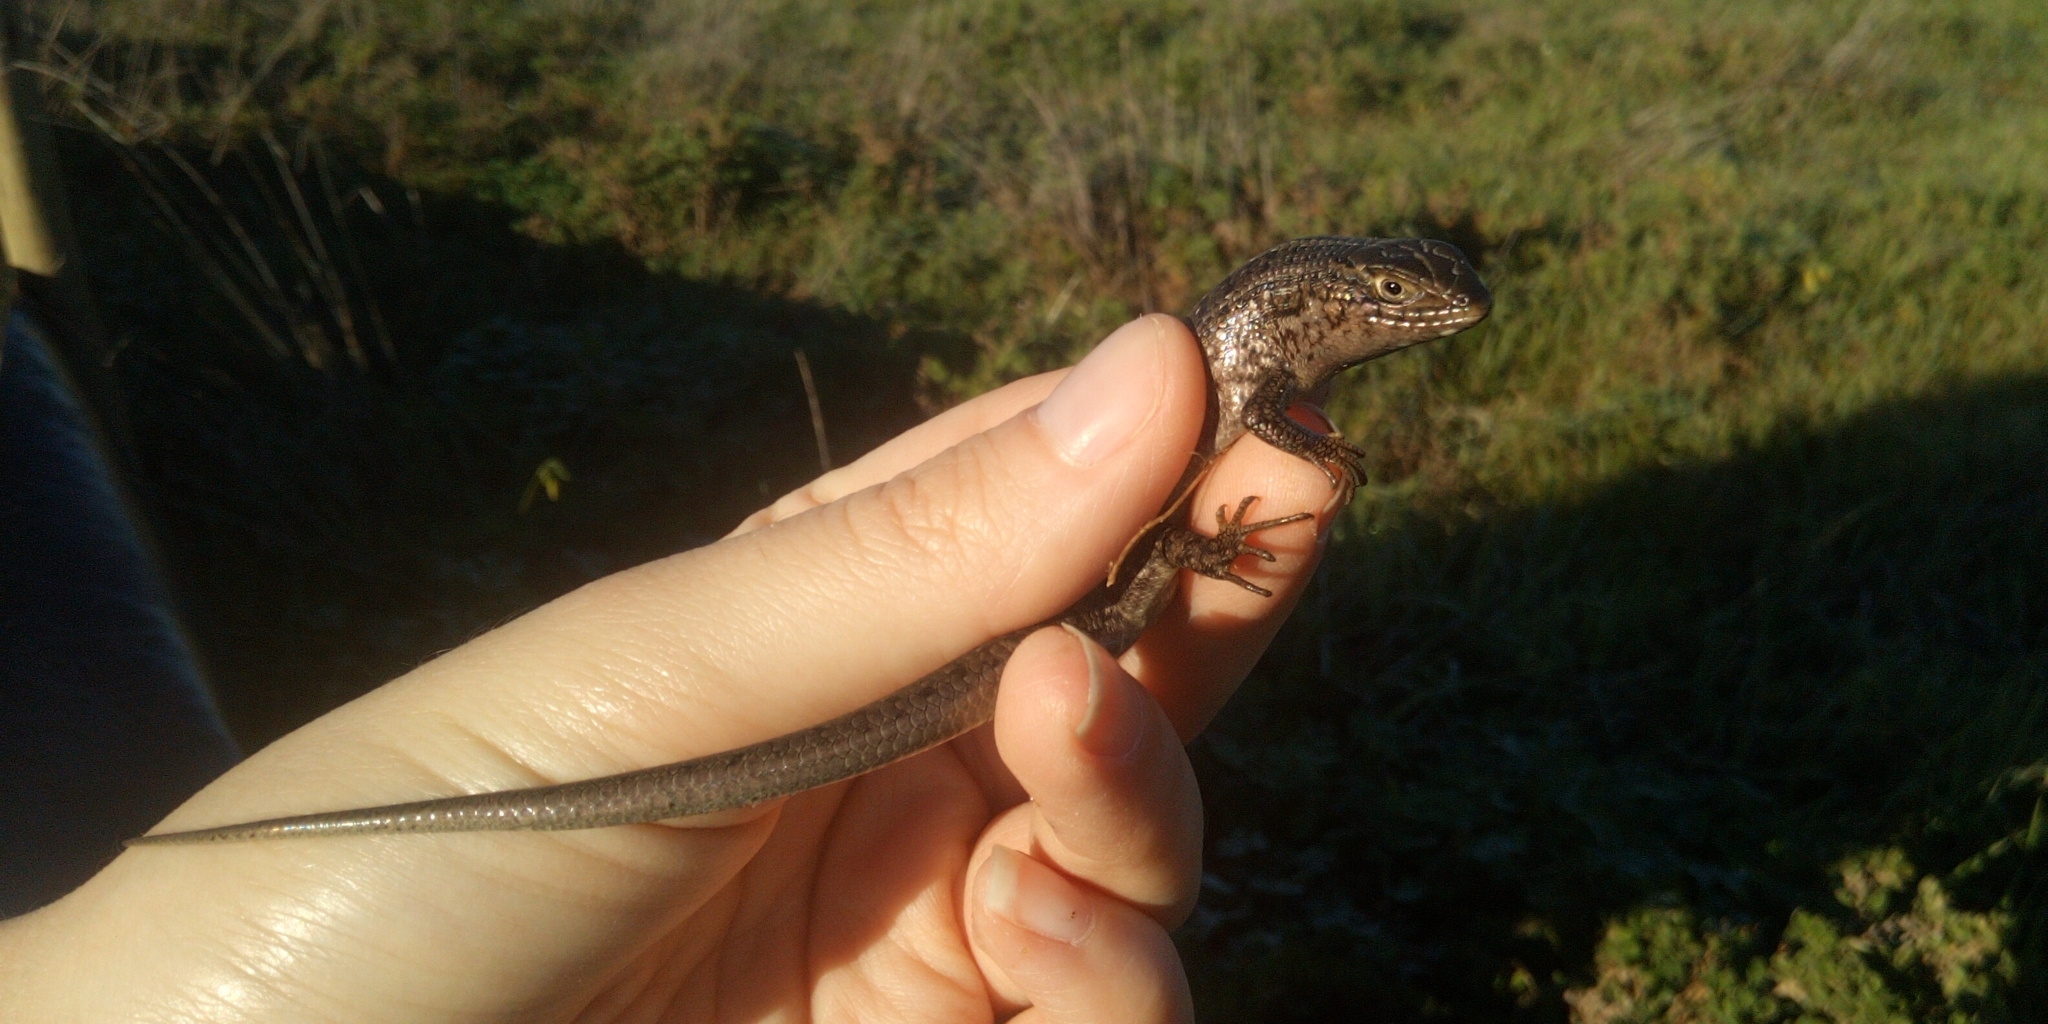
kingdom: Animalia
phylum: Chordata
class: Squamata
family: Scincidae
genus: Trachylepis
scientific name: Trachylepis capensis
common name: Cape skink
